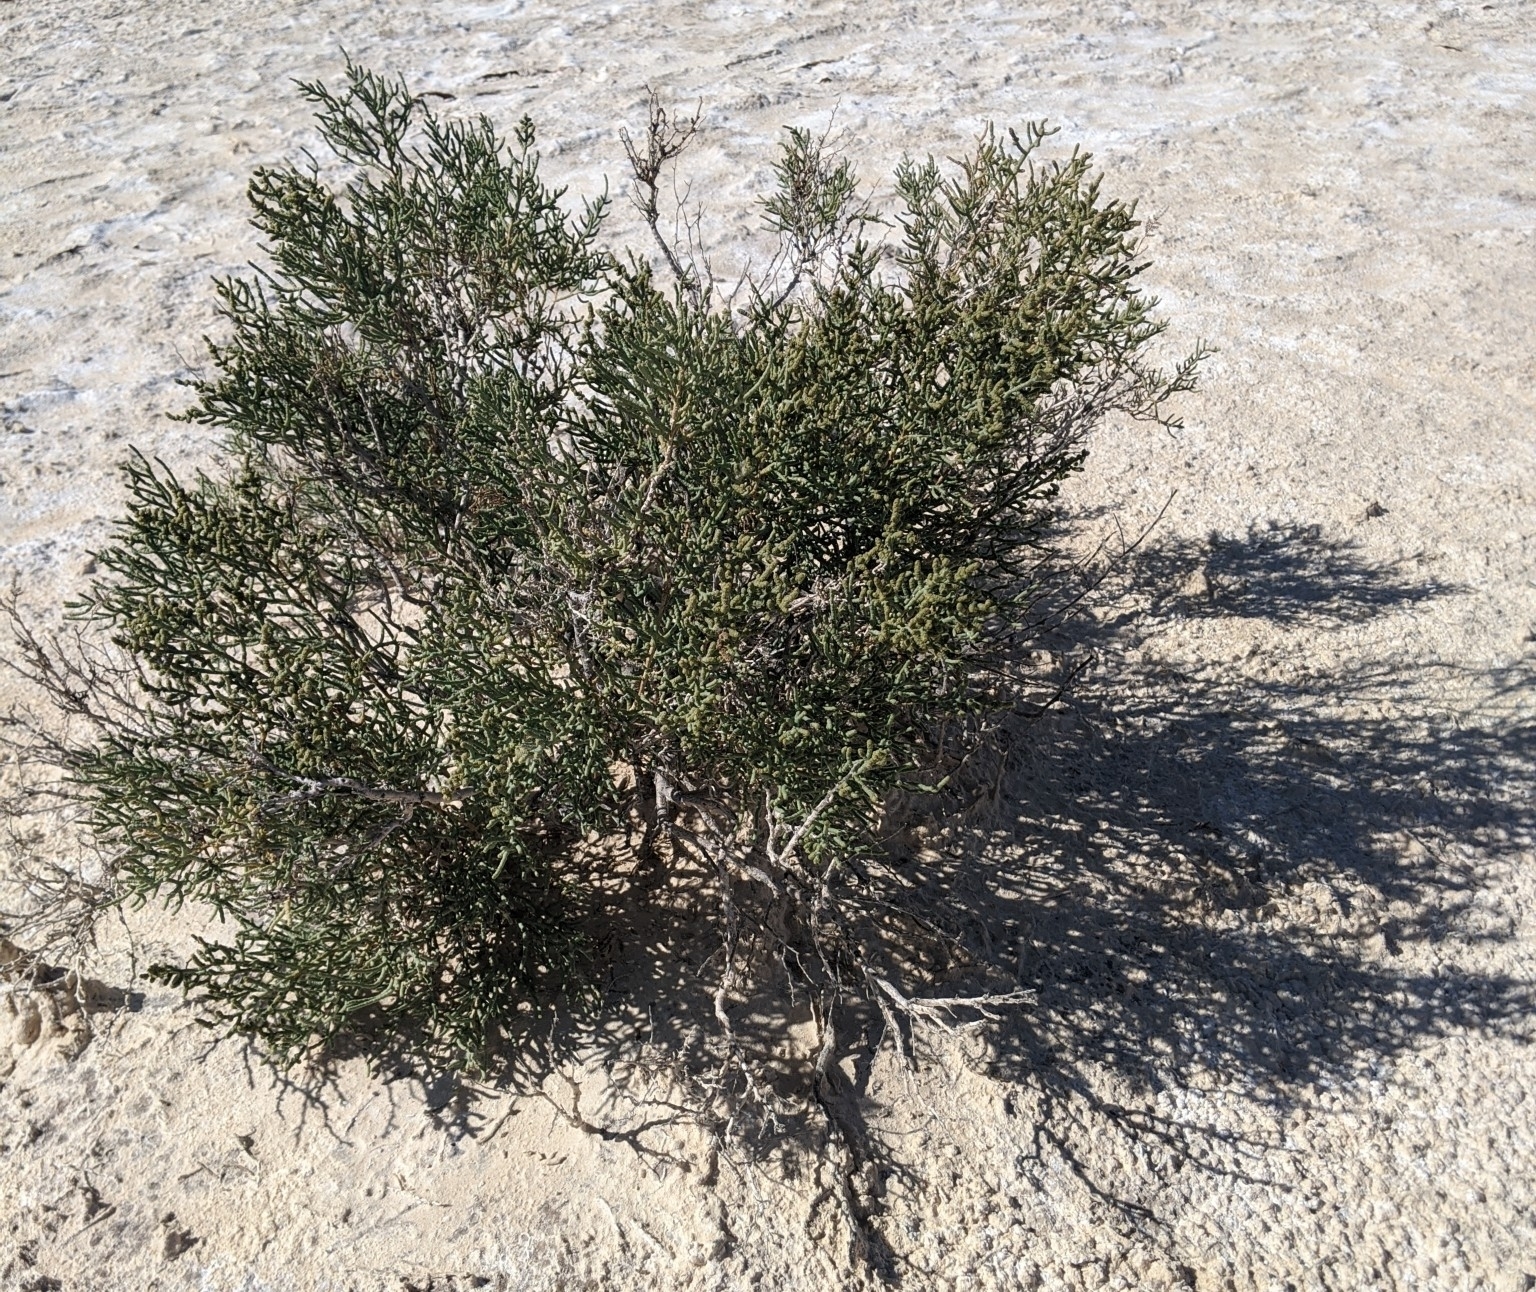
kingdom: Plantae
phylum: Tracheophyta
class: Magnoliopsida
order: Caryophyllales
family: Amaranthaceae
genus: Allenrolfea
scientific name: Allenrolfea occidentalis
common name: Iodine-bush
